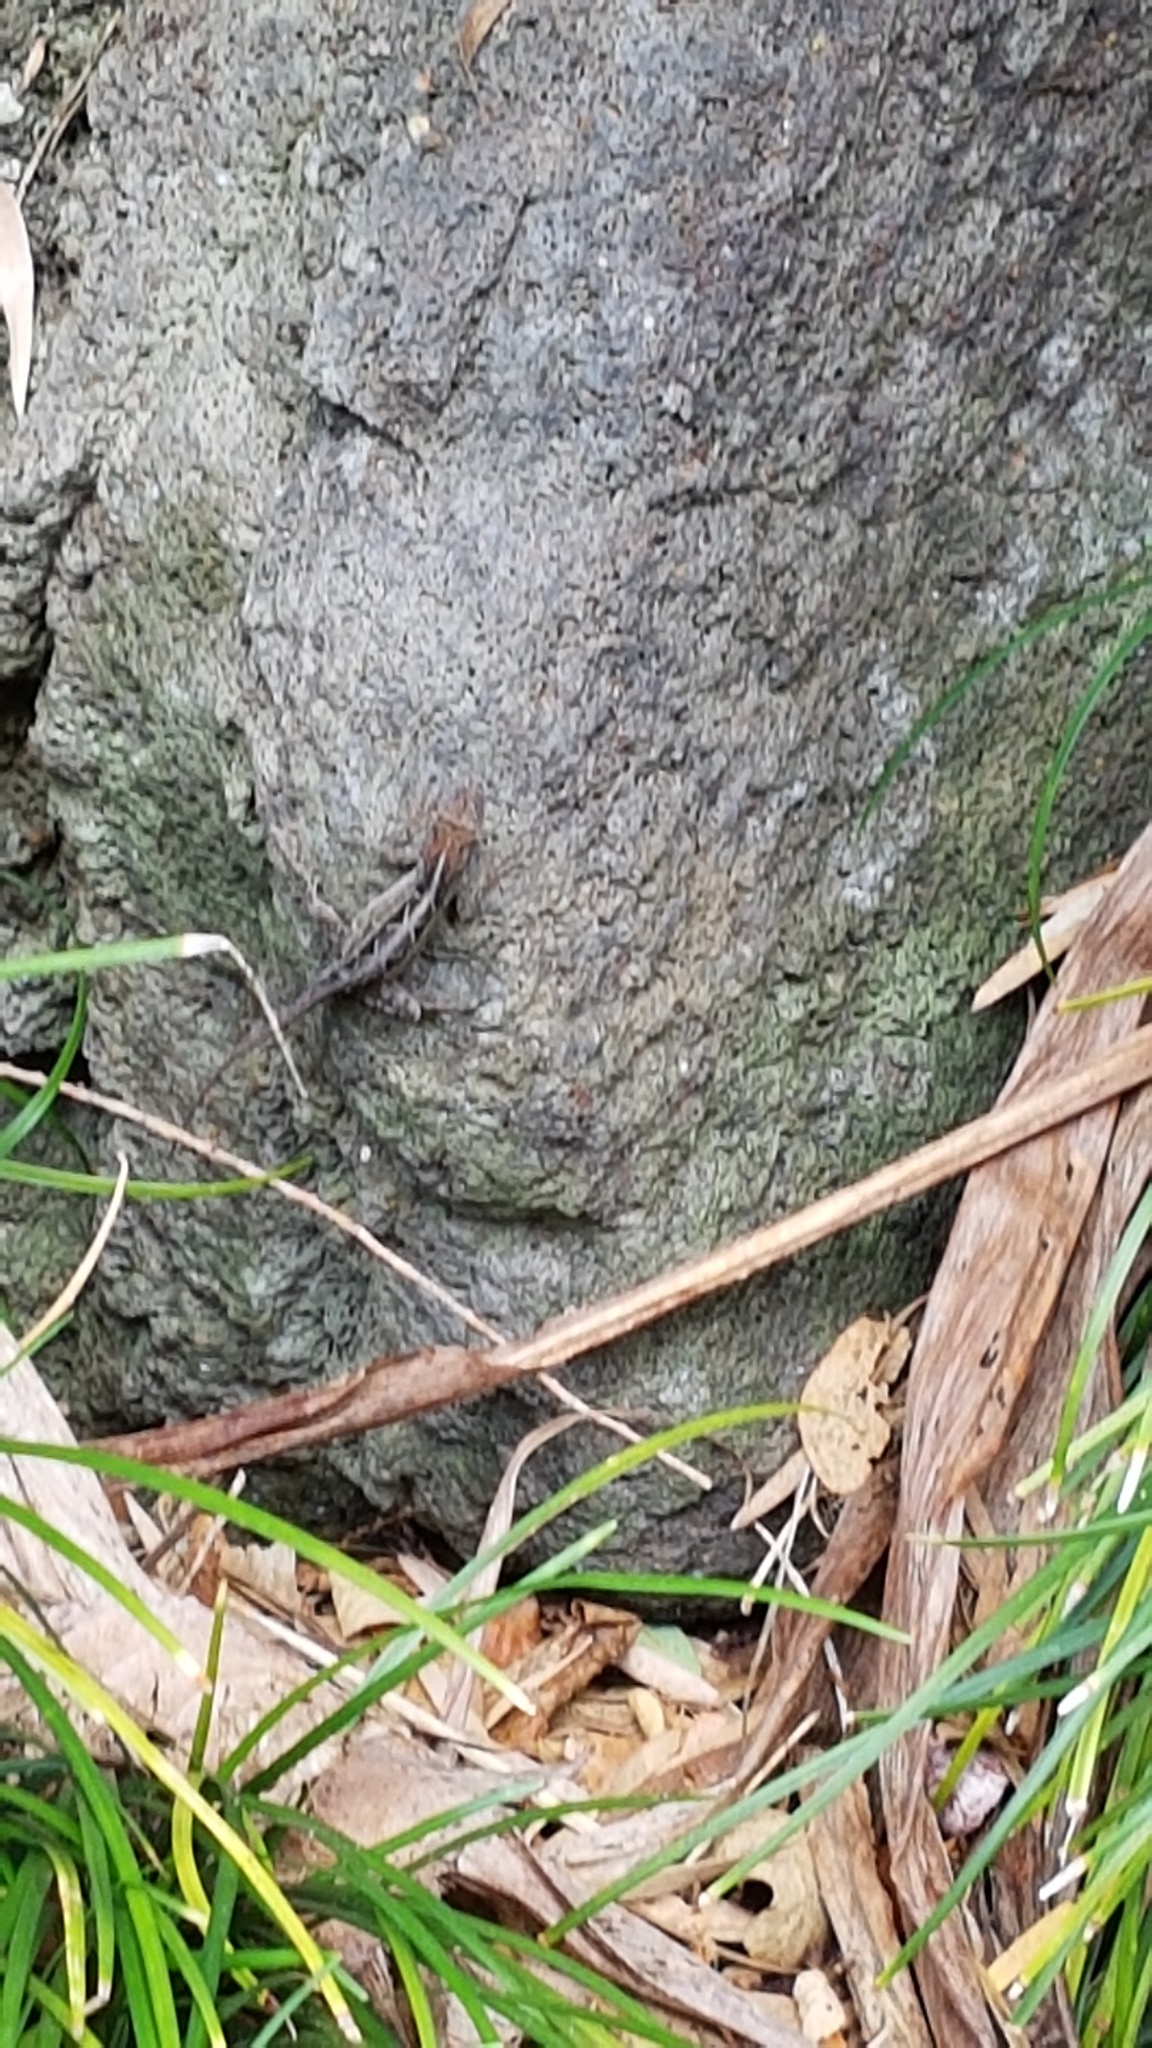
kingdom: Animalia
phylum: Chordata
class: Squamata
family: Dactyloidae
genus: Anolis
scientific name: Anolis sagrei
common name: Brown anole
